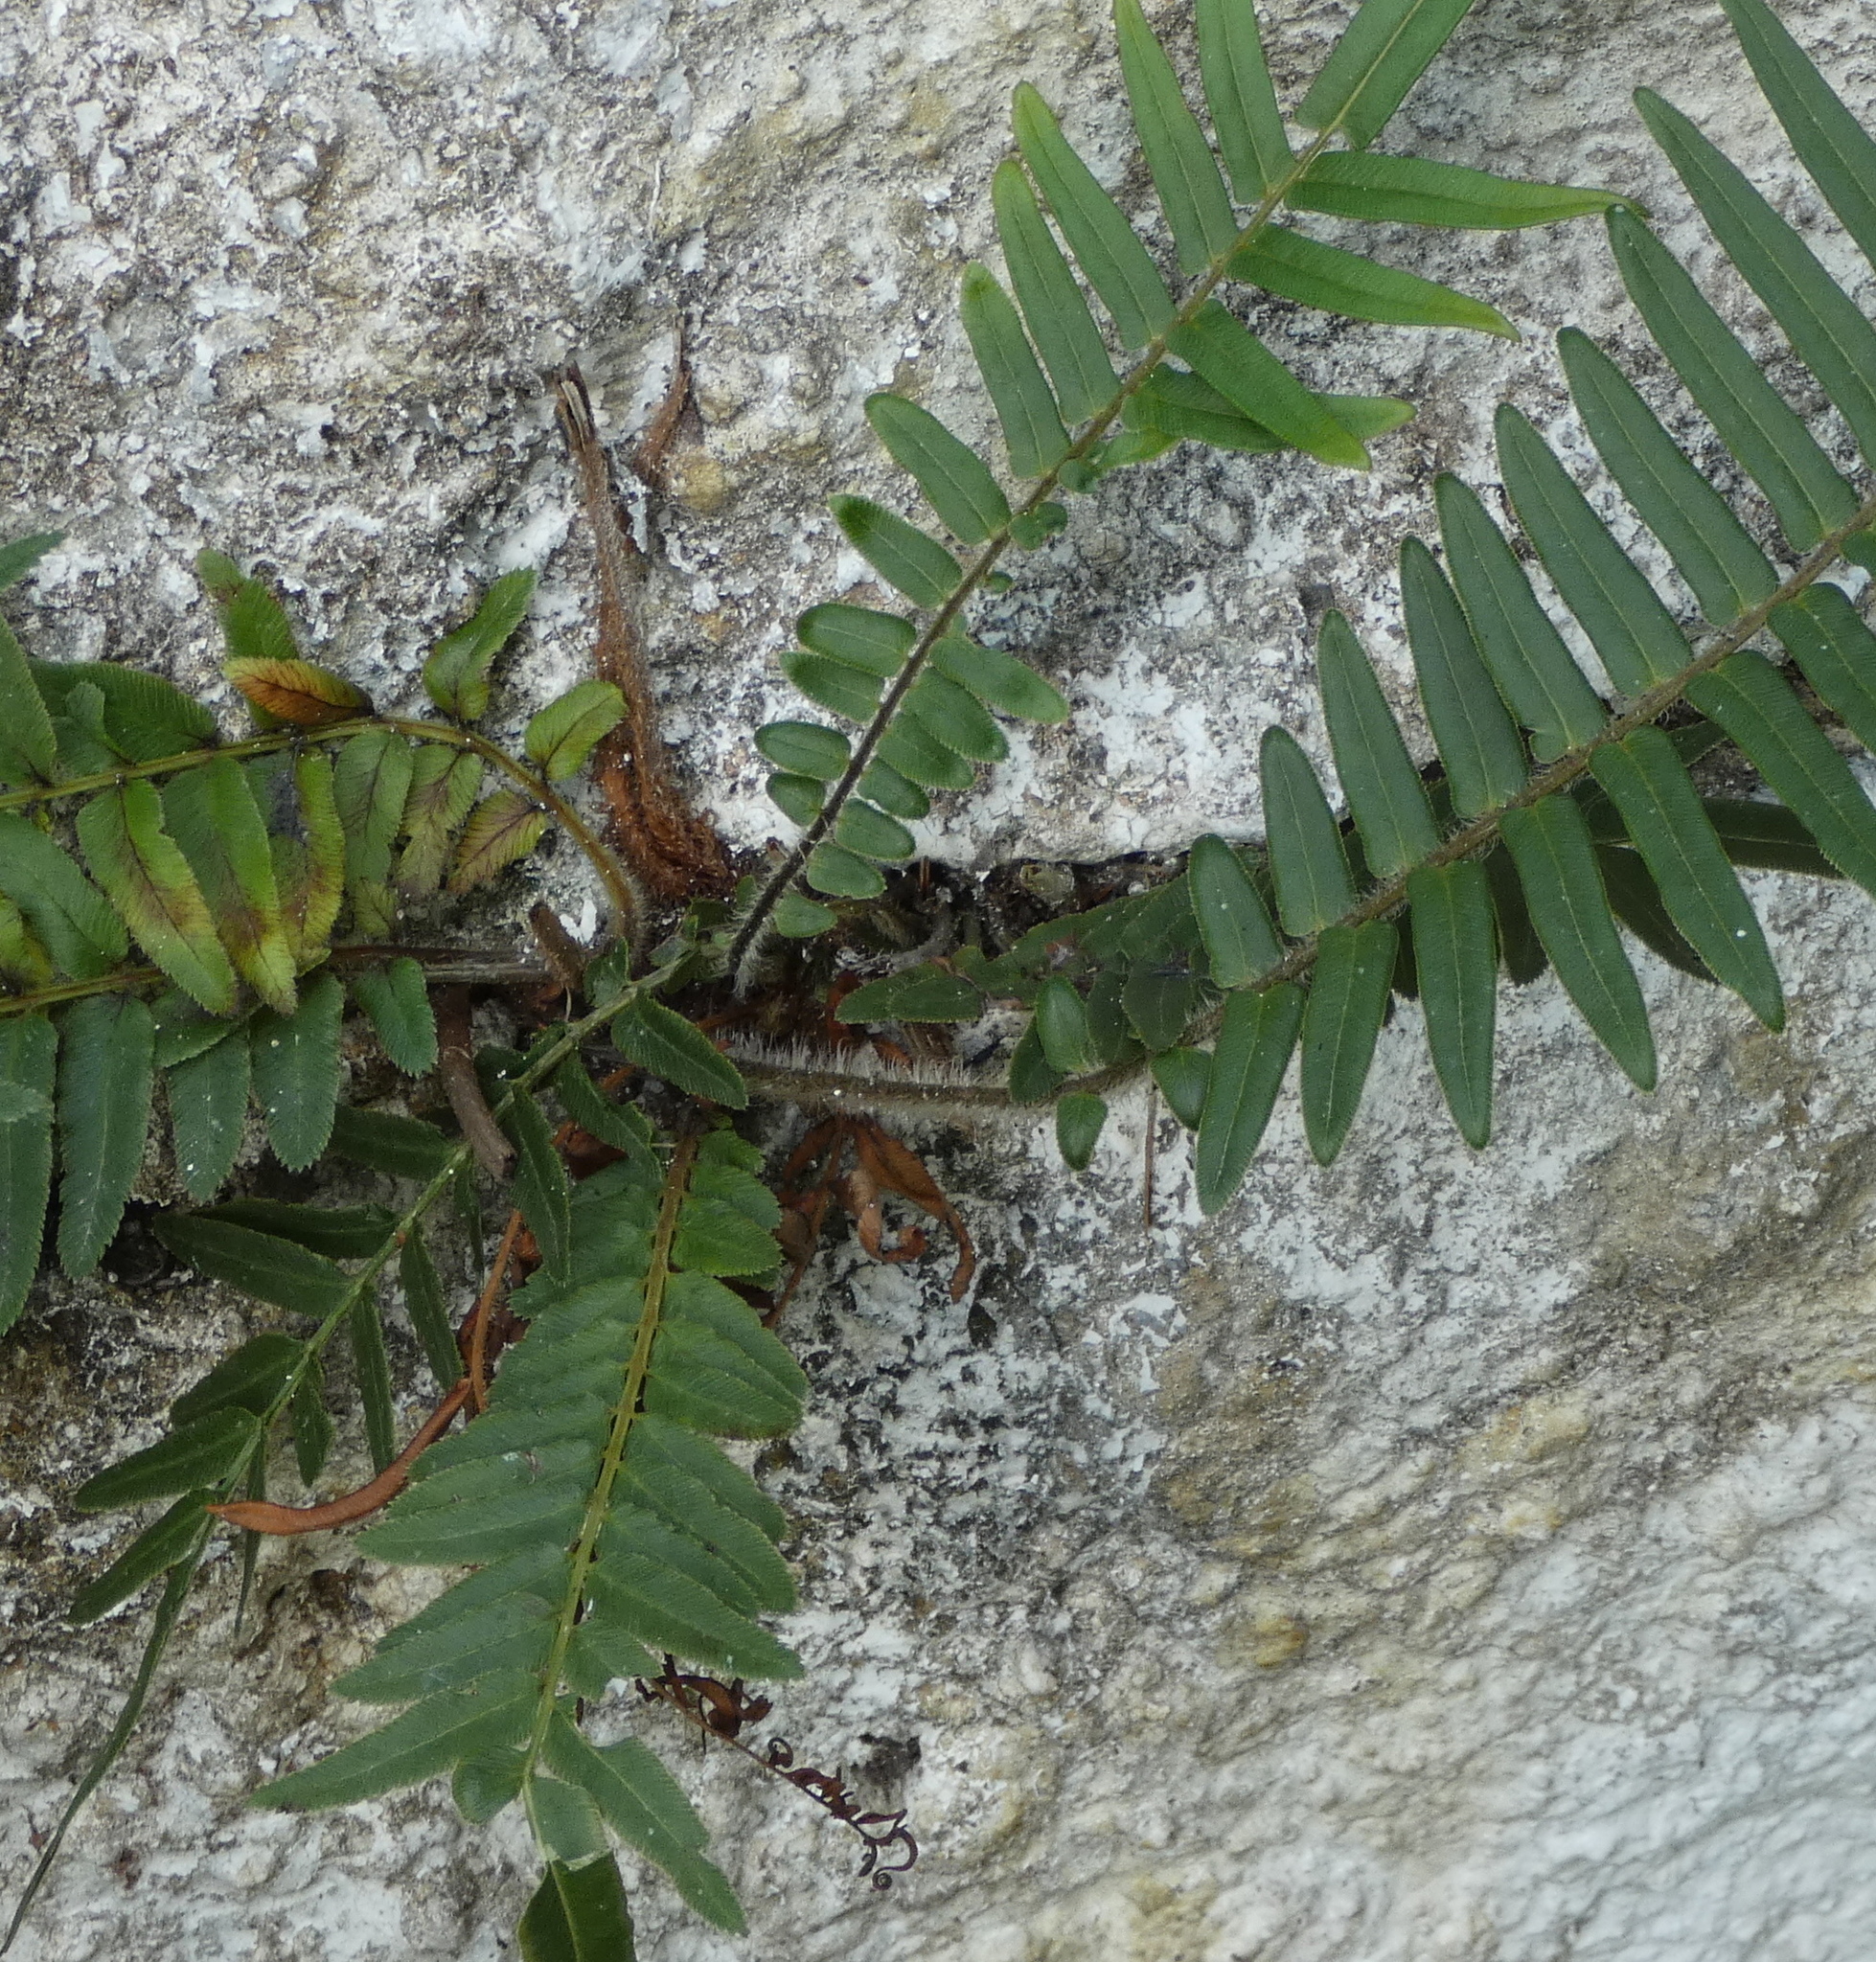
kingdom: Plantae
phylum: Tracheophyta
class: Polypodiopsida
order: Polypodiales
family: Pteridaceae
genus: Pteris
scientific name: Pteris vittata
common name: Ladder brake
